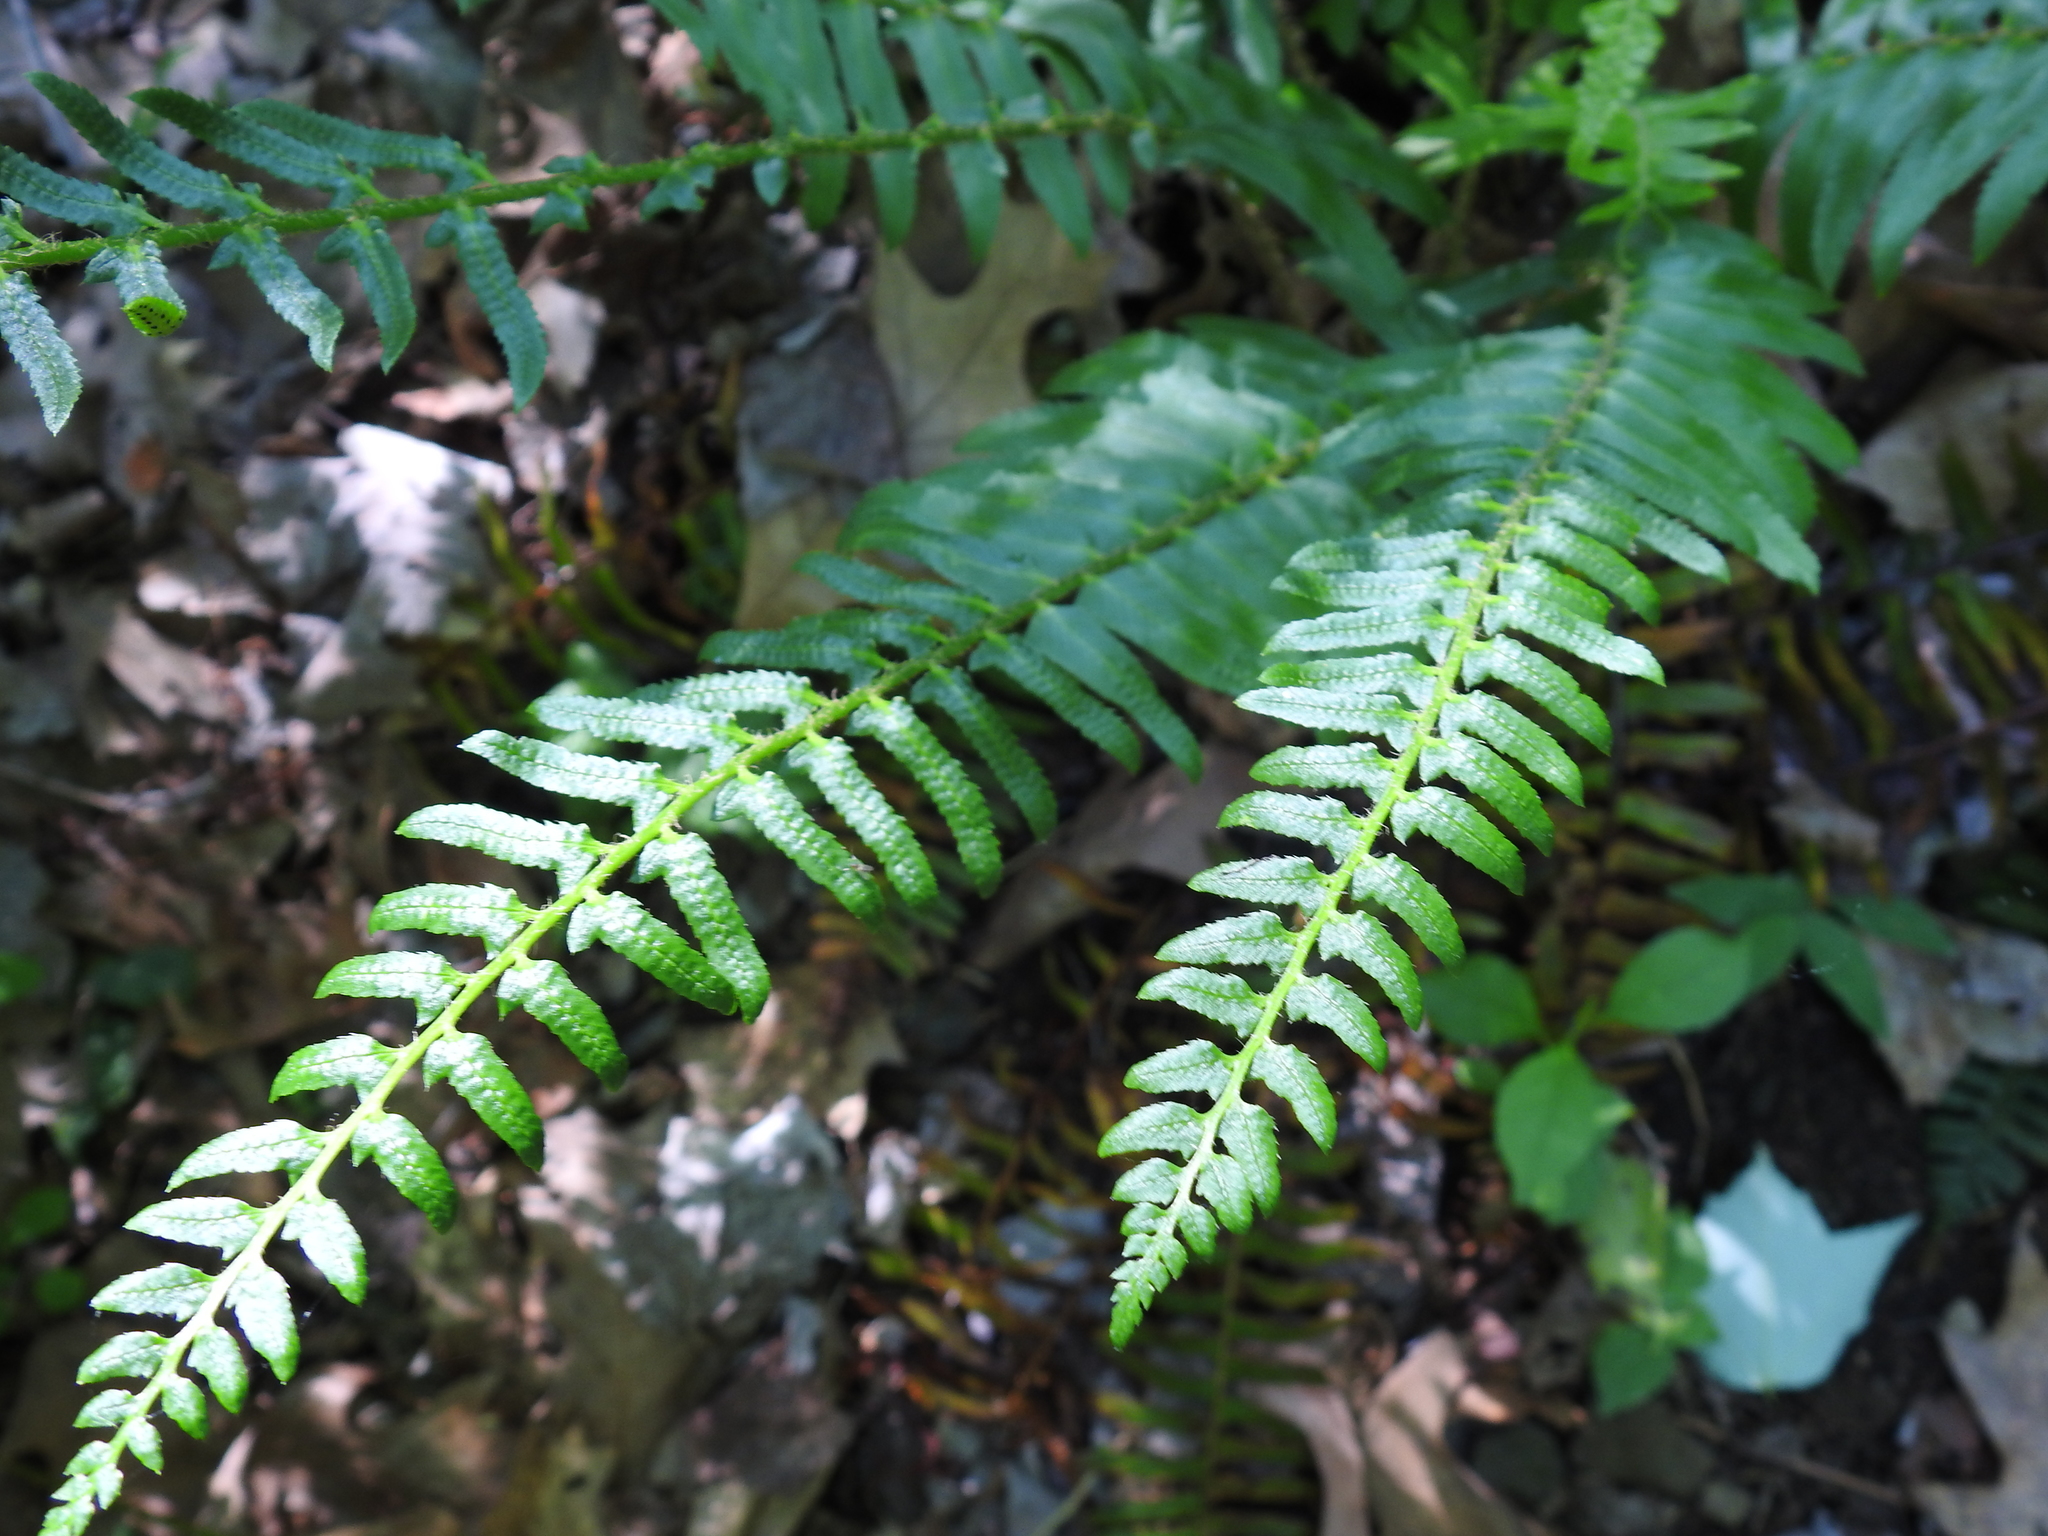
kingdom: Plantae
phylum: Tracheophyta
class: Polypodiopsida
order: Polypodiales
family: Dryopteridaceae
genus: Polystichum
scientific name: Polystichum acrostichoides
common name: Christmas fern
